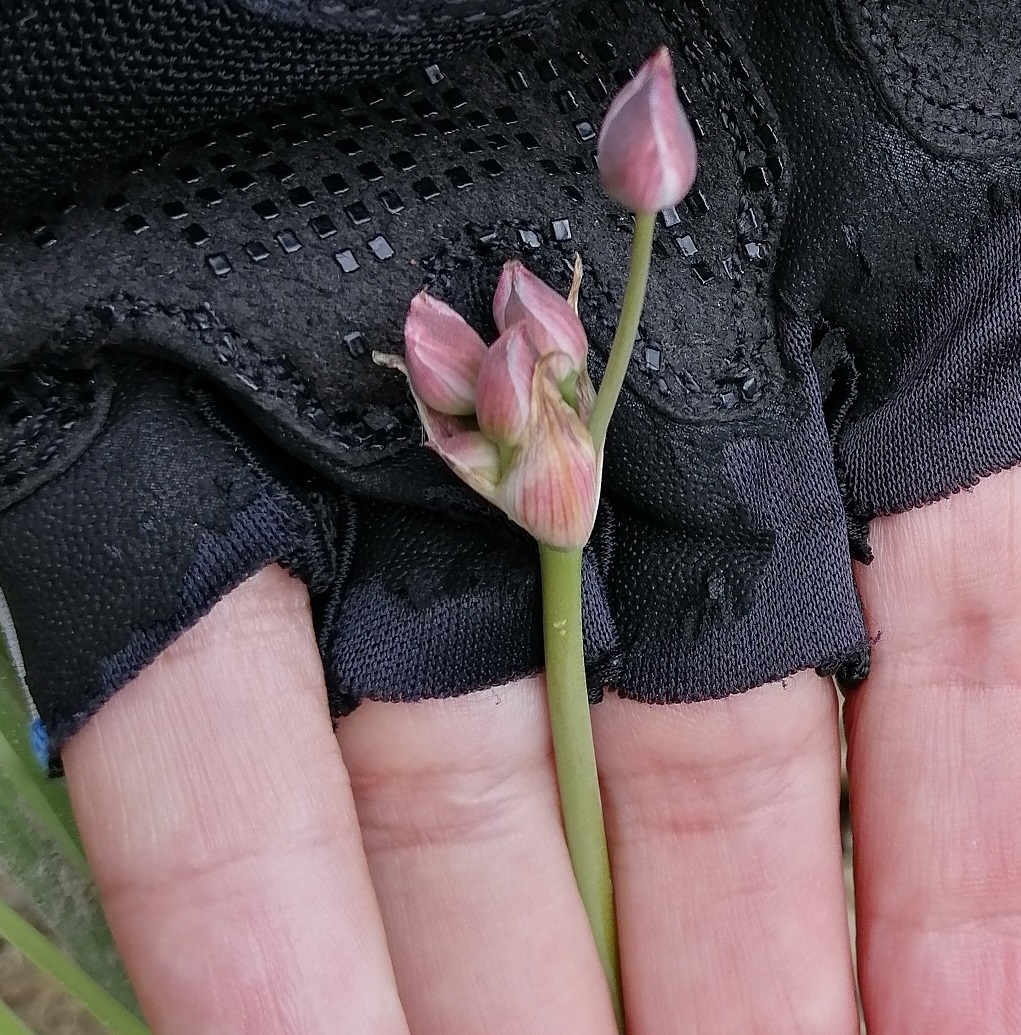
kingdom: Plantae
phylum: Tracheophyta
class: Liliopsida
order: Alismatales
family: Butomaceae
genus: Butomus
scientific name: Butomus umbellatus
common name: Flowering-rush
